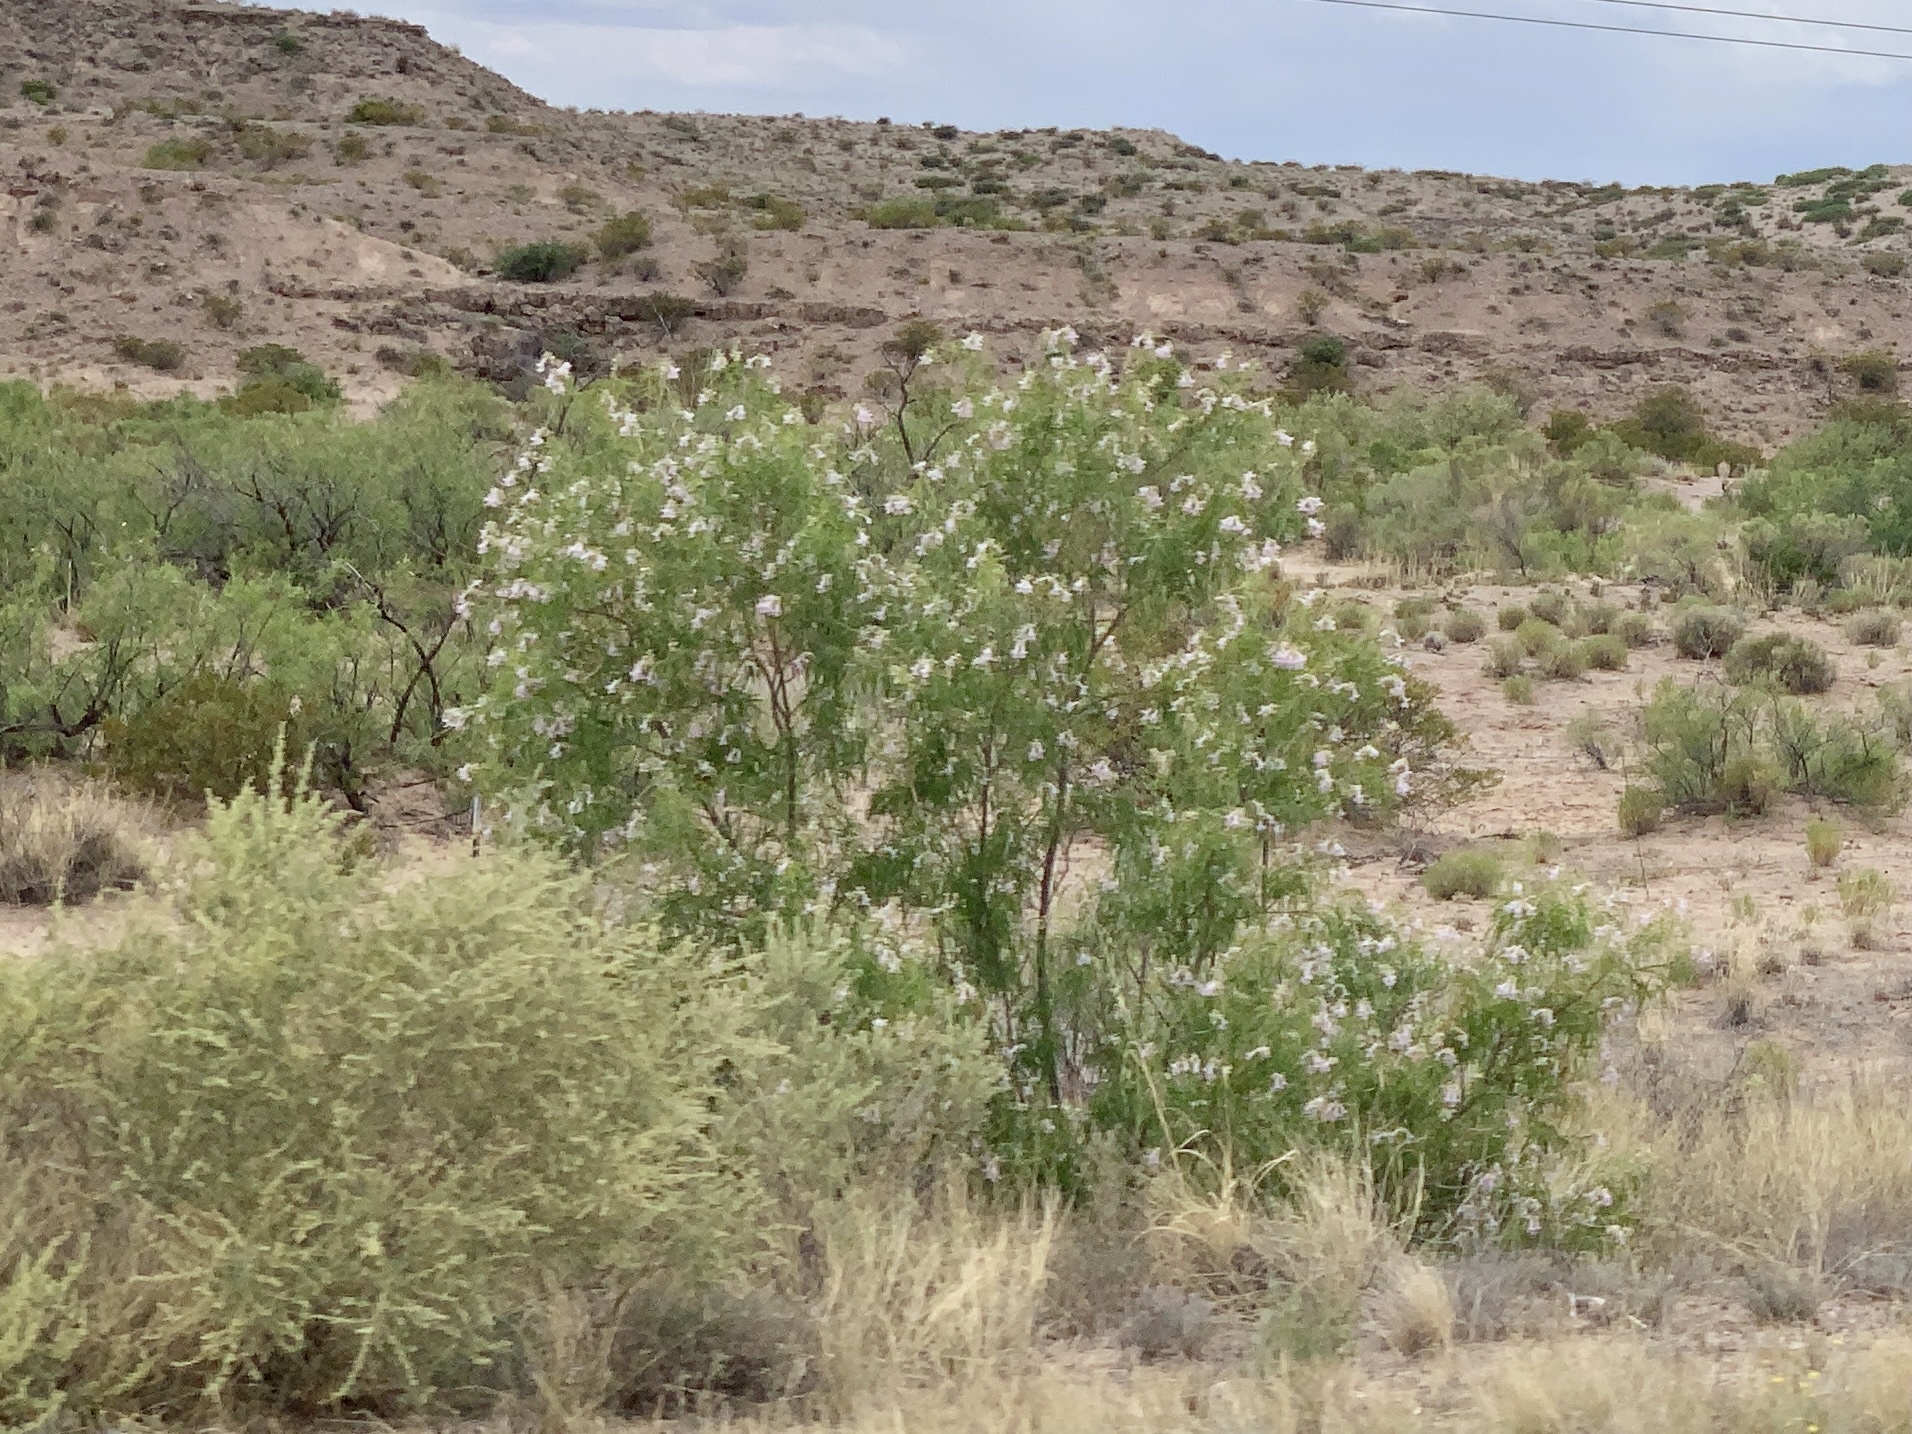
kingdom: Plantae
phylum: Tracheophyta
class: Magnoliopsida
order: Lamiales
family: Bignoniaceae
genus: Chilopsis
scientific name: Chilopsis linearis
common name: Desert-willow
